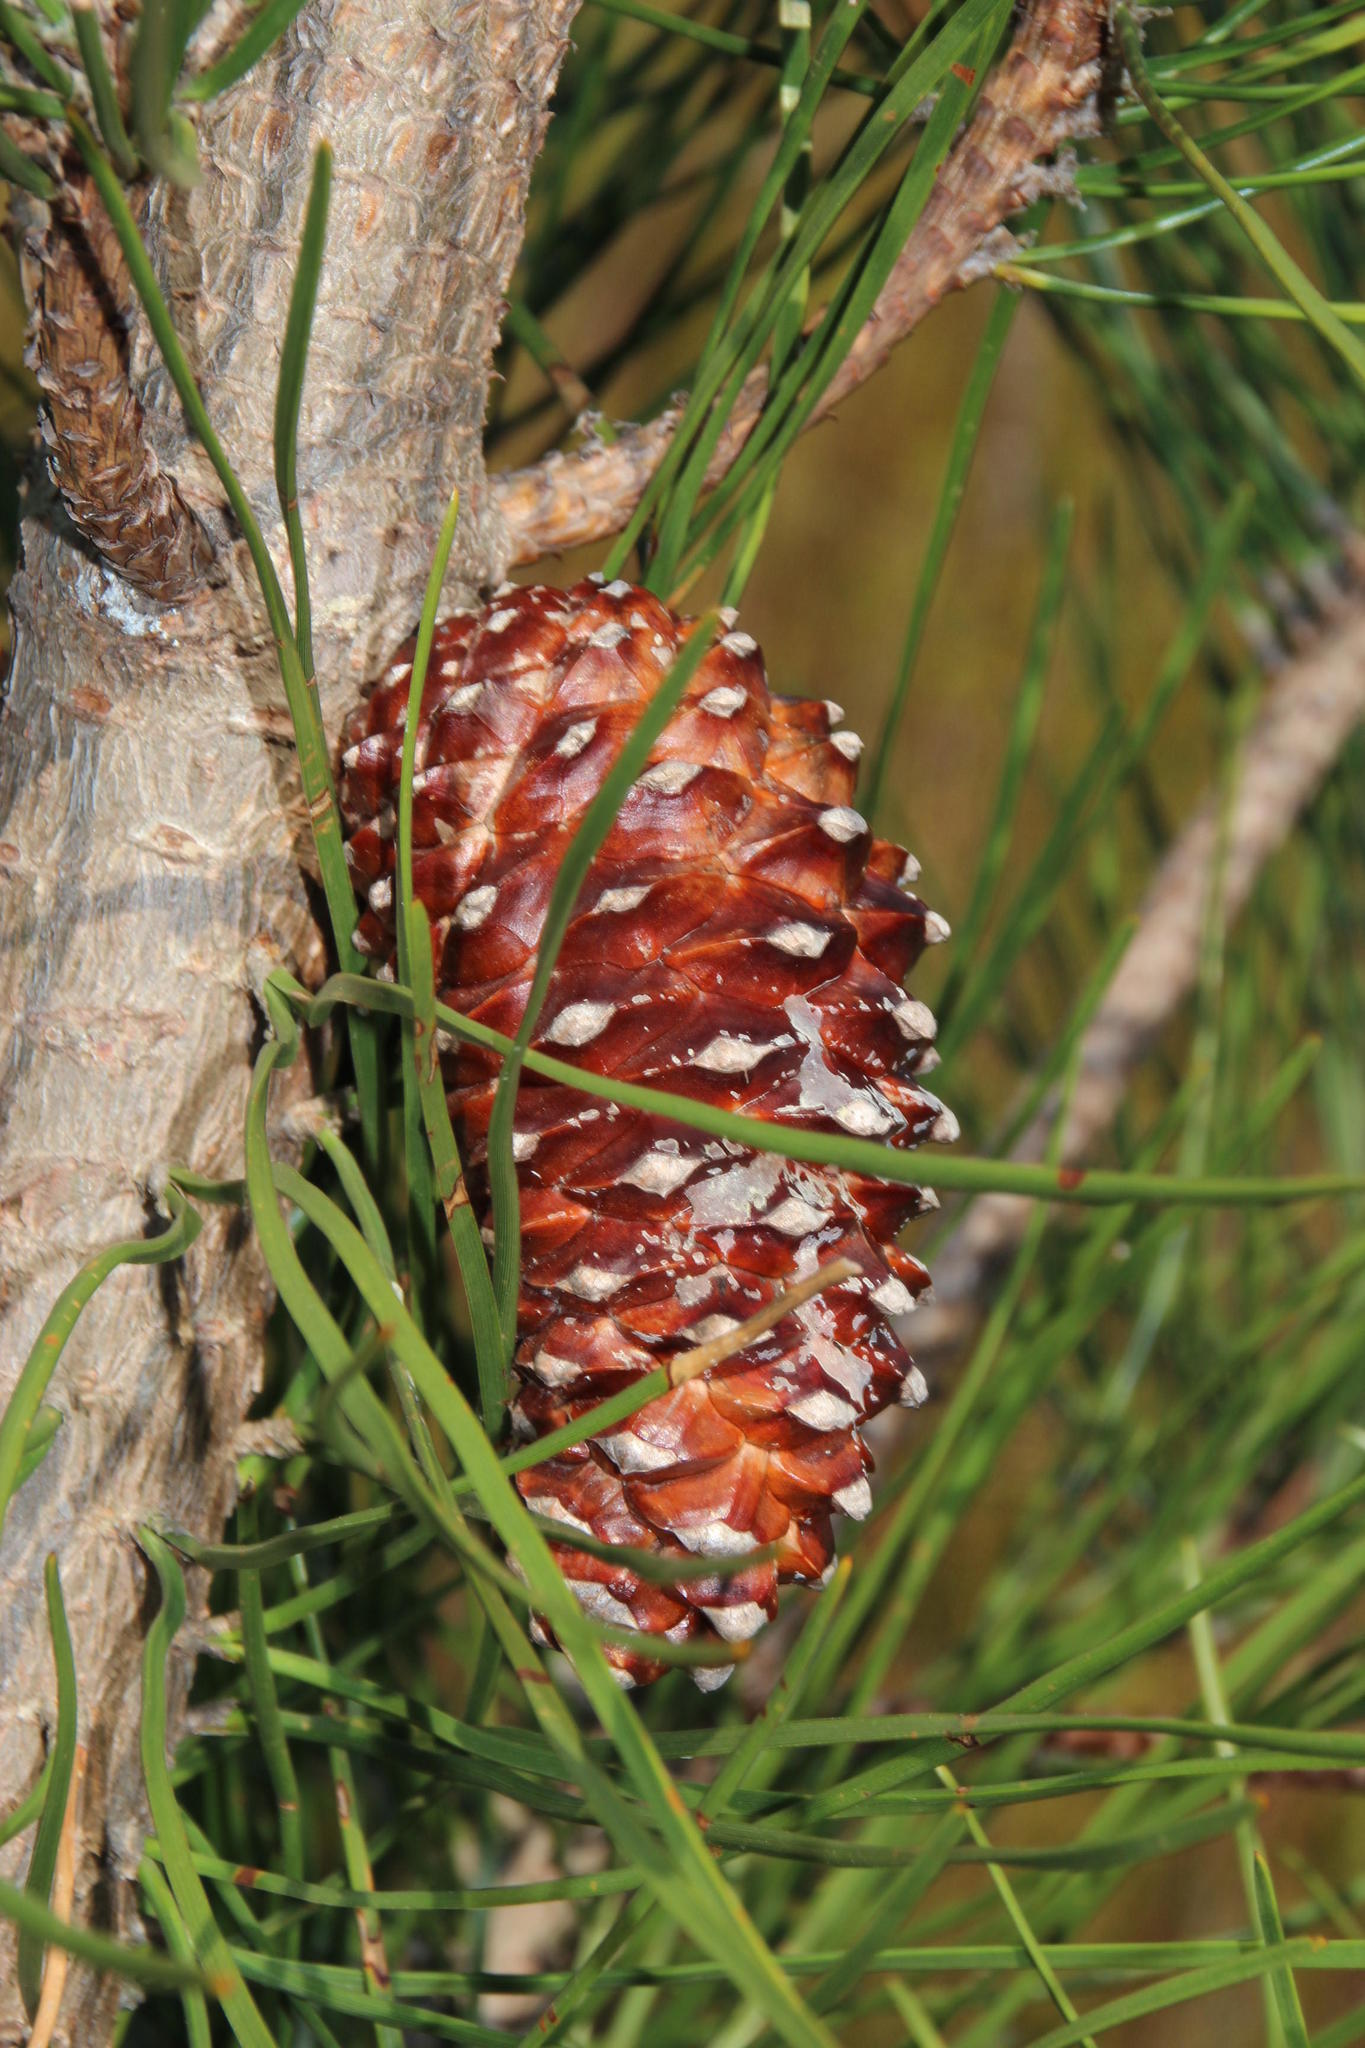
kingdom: Plantae
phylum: Tracheophyta
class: Pinopsida
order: Pinales
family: Pinaceae
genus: Pinus
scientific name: Pinus pinaster
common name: Maritime pine
